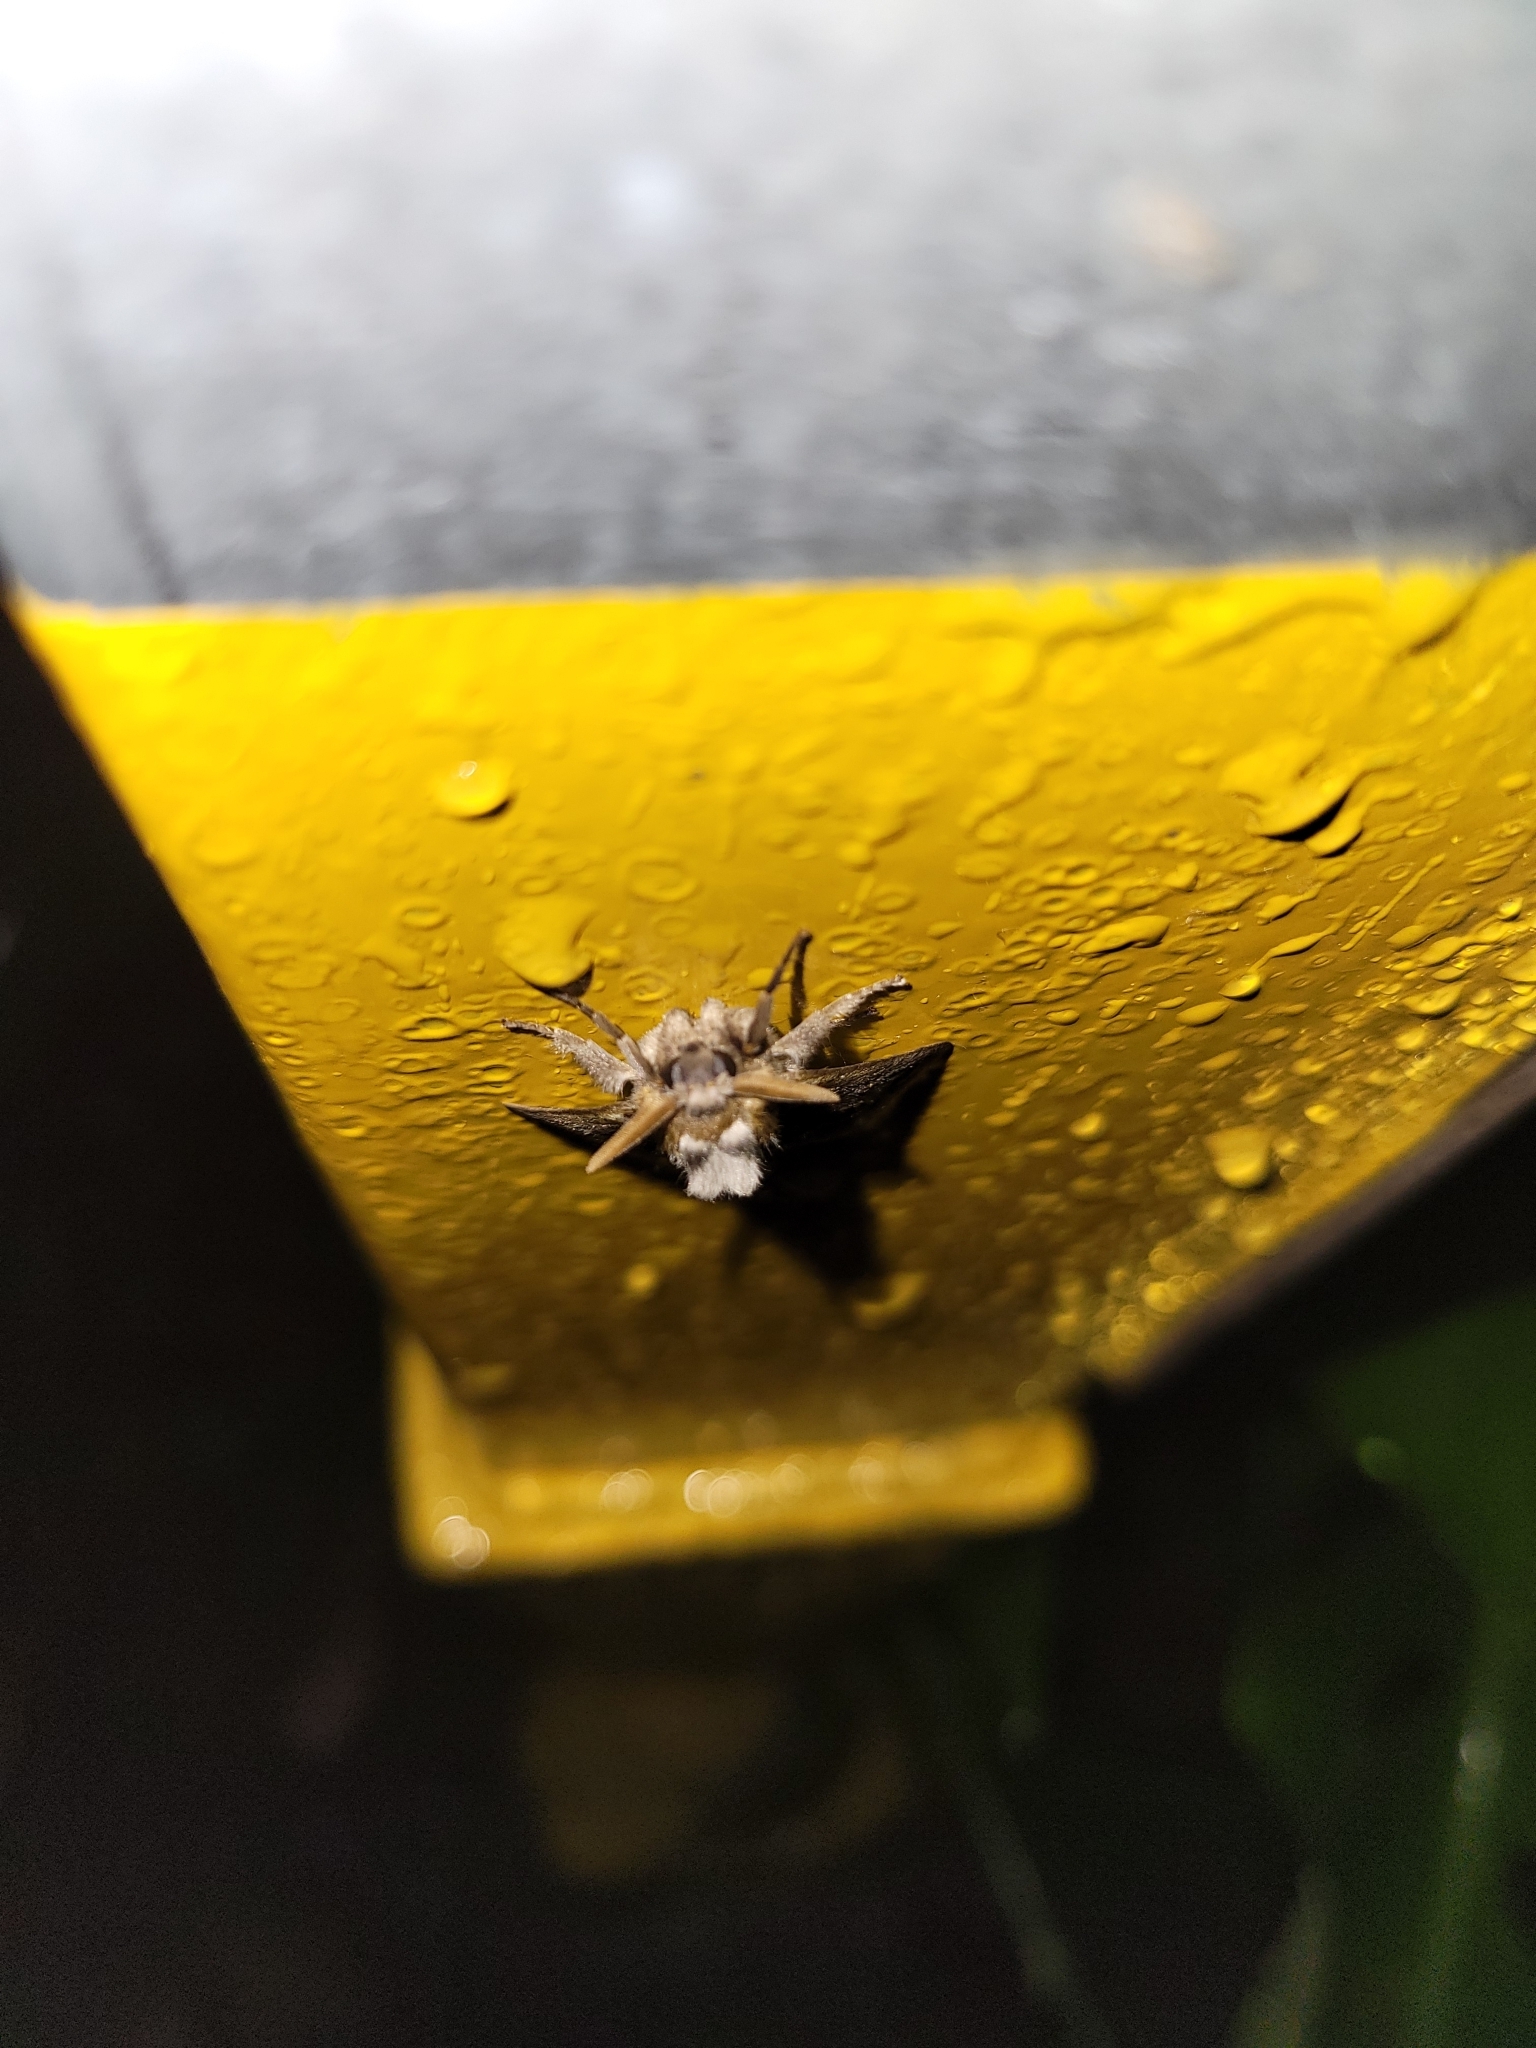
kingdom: Animalia
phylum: Arthropoda
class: Insecta
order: Lepidoptera
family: Megalopygidae
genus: Podalia
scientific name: Podalia habitus
